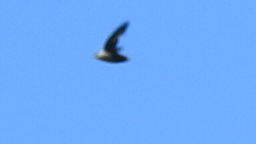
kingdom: Animalia
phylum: Chordata
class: Aves
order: Apodiformes
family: Apodidae
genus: Chaetura
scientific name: Chaetura vauxi
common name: Vaux's swift
